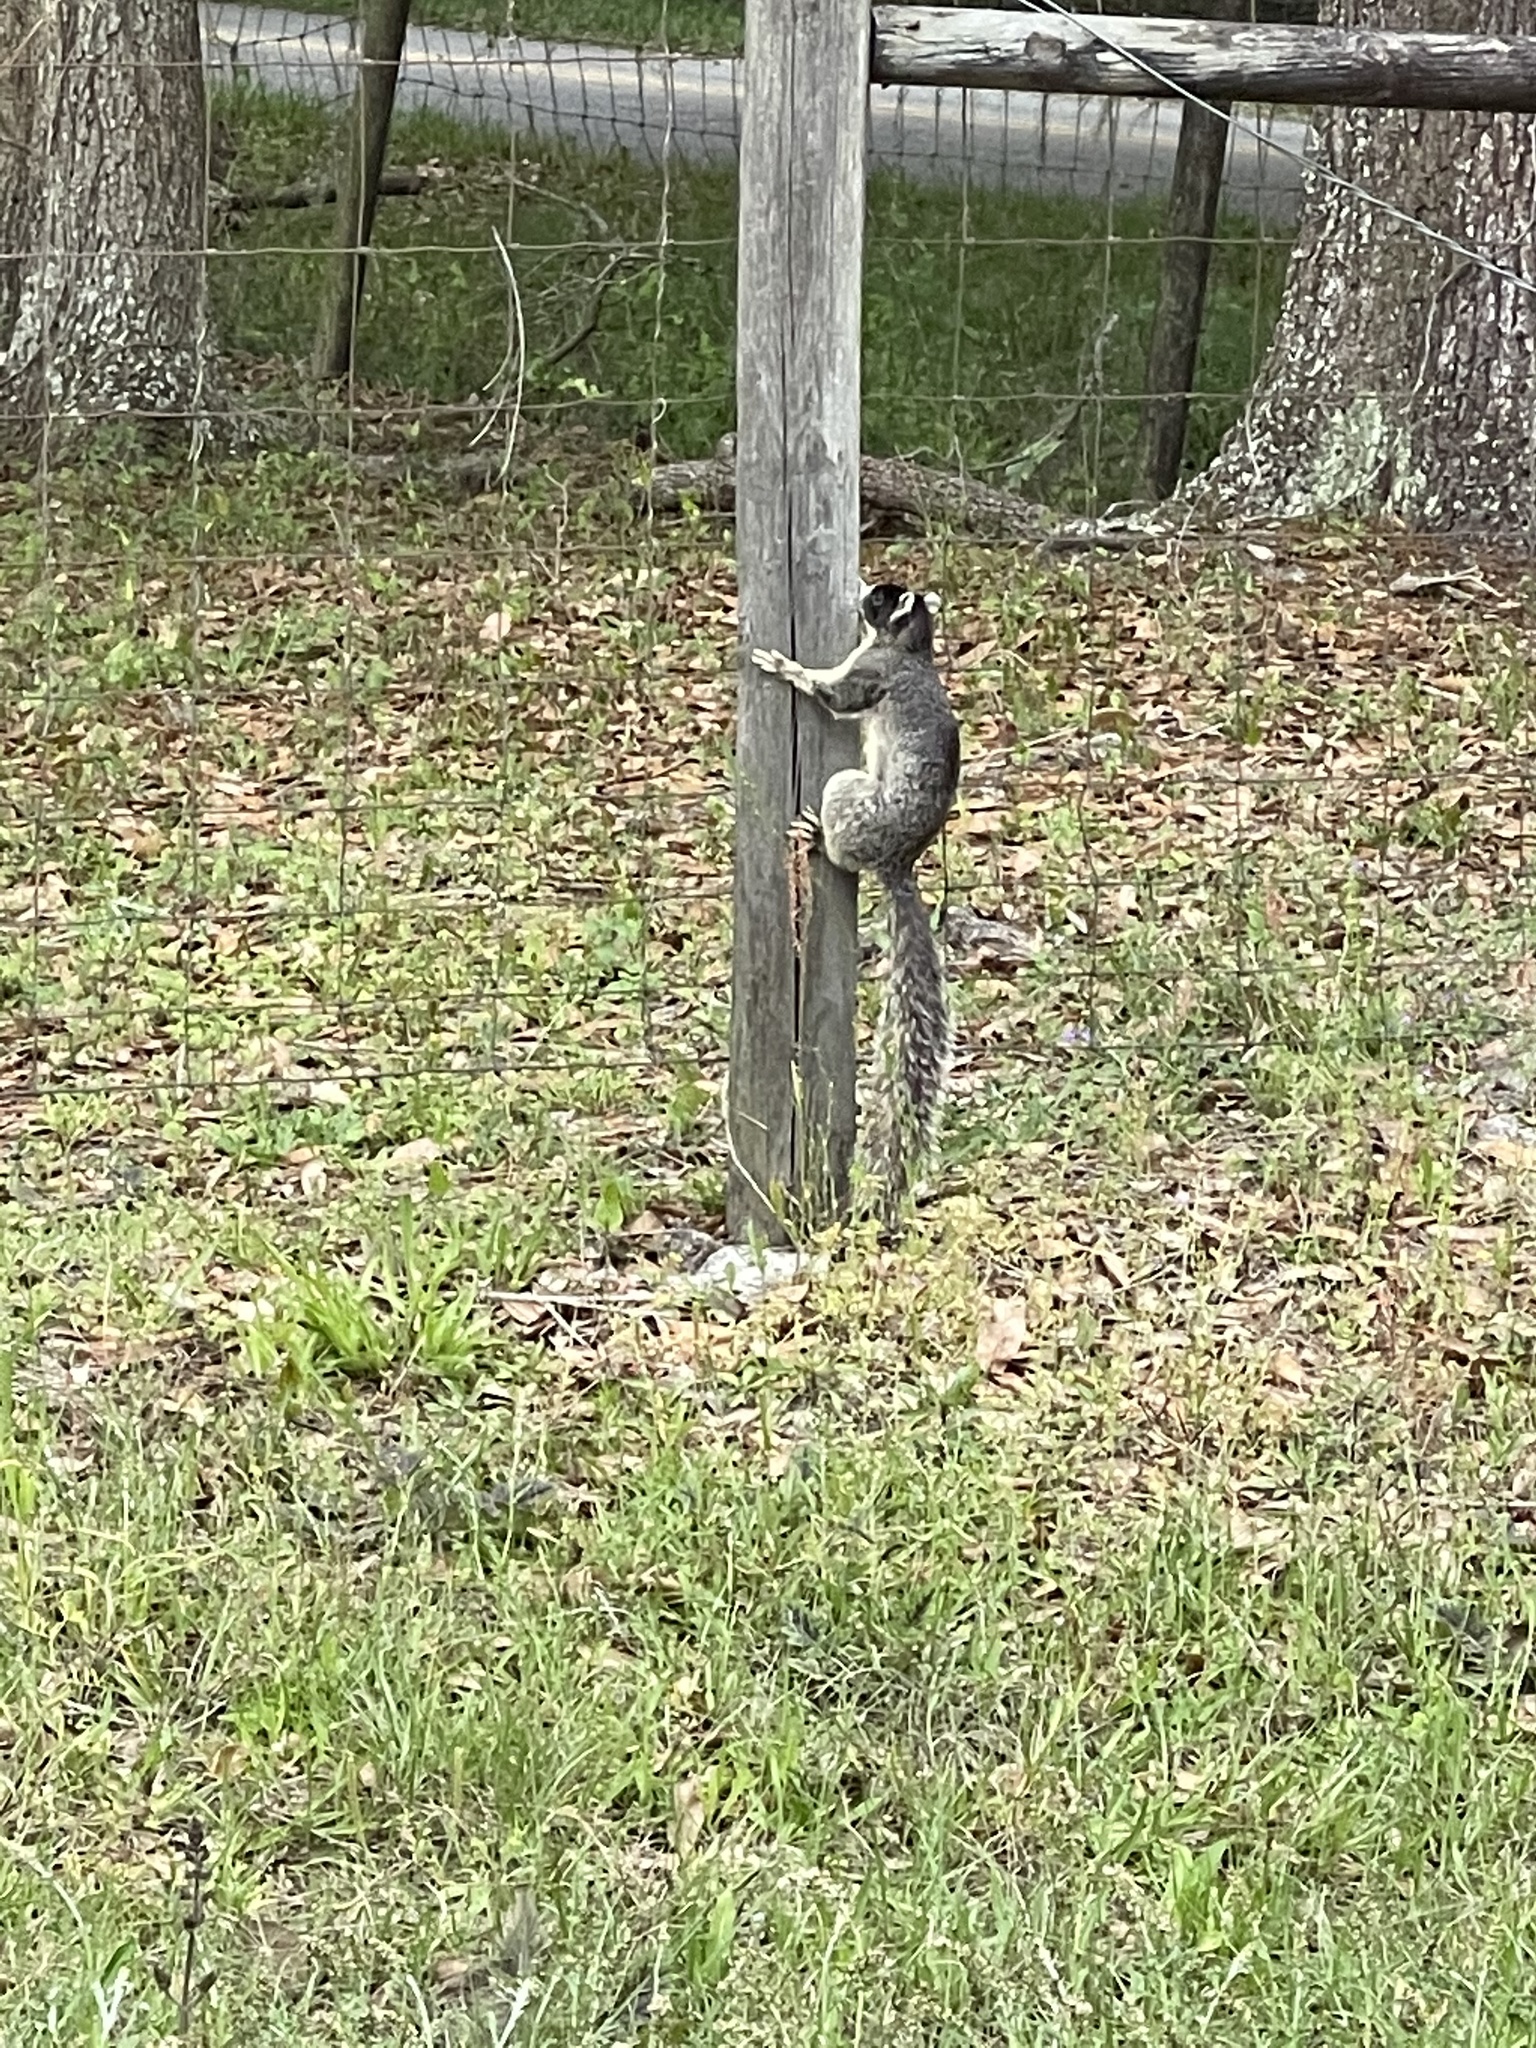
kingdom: Animalia
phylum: Chordata
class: Mammalia
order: Rodentia
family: Sciuridae
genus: Sciurus
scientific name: Sciurus niger
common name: Fox squirrel
